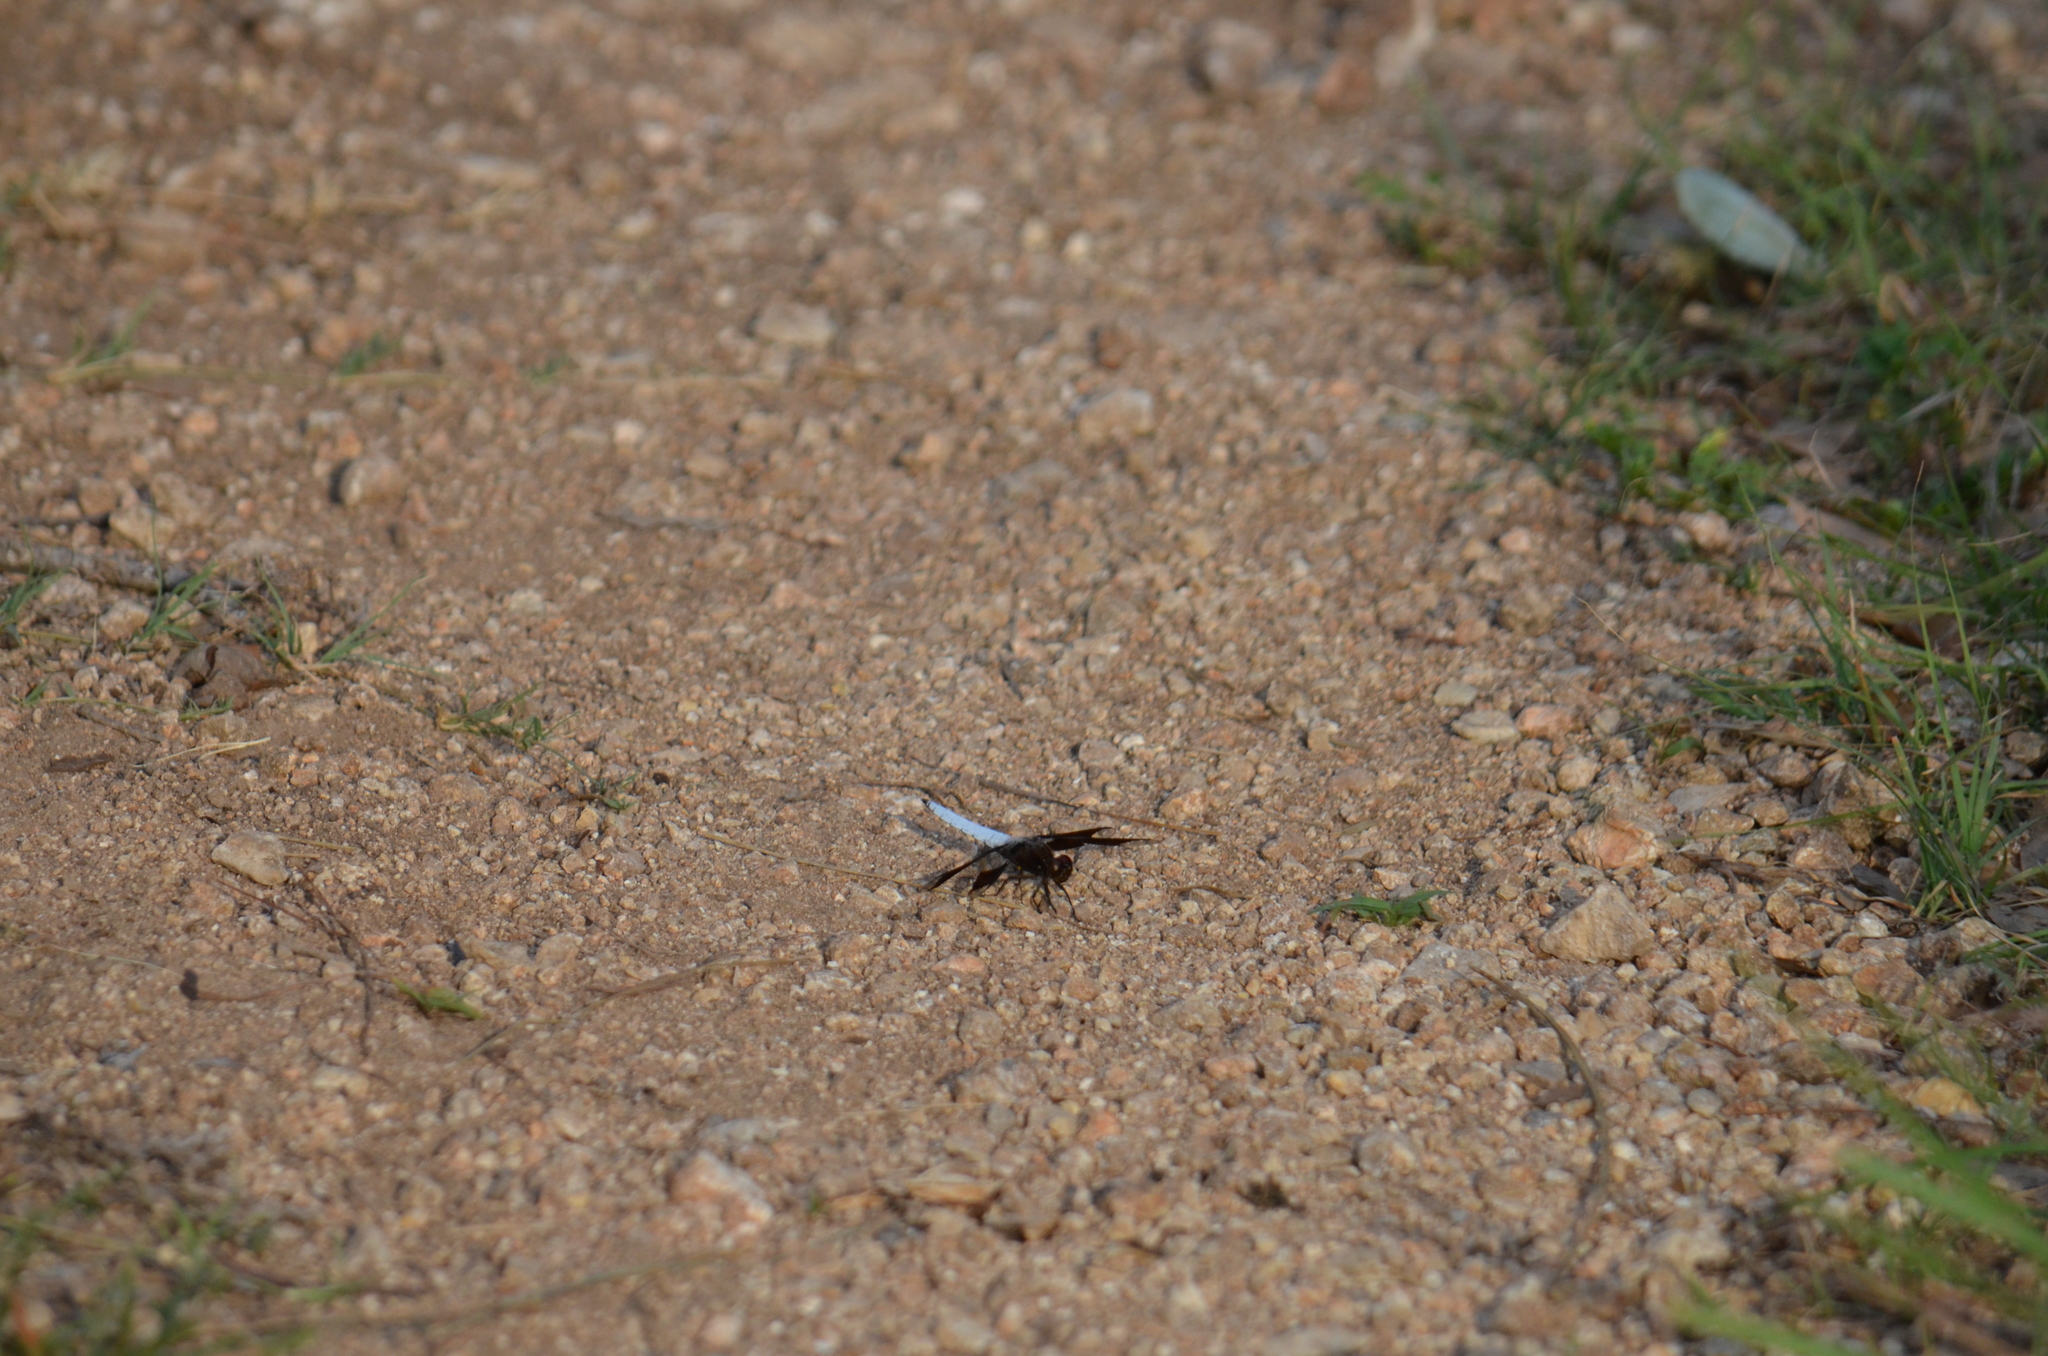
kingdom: Animalia
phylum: Arthropoda
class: Insecta
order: Odonata
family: Libellulidae
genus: Plathemis
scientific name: Plathemis lydia
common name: Common whitetail
